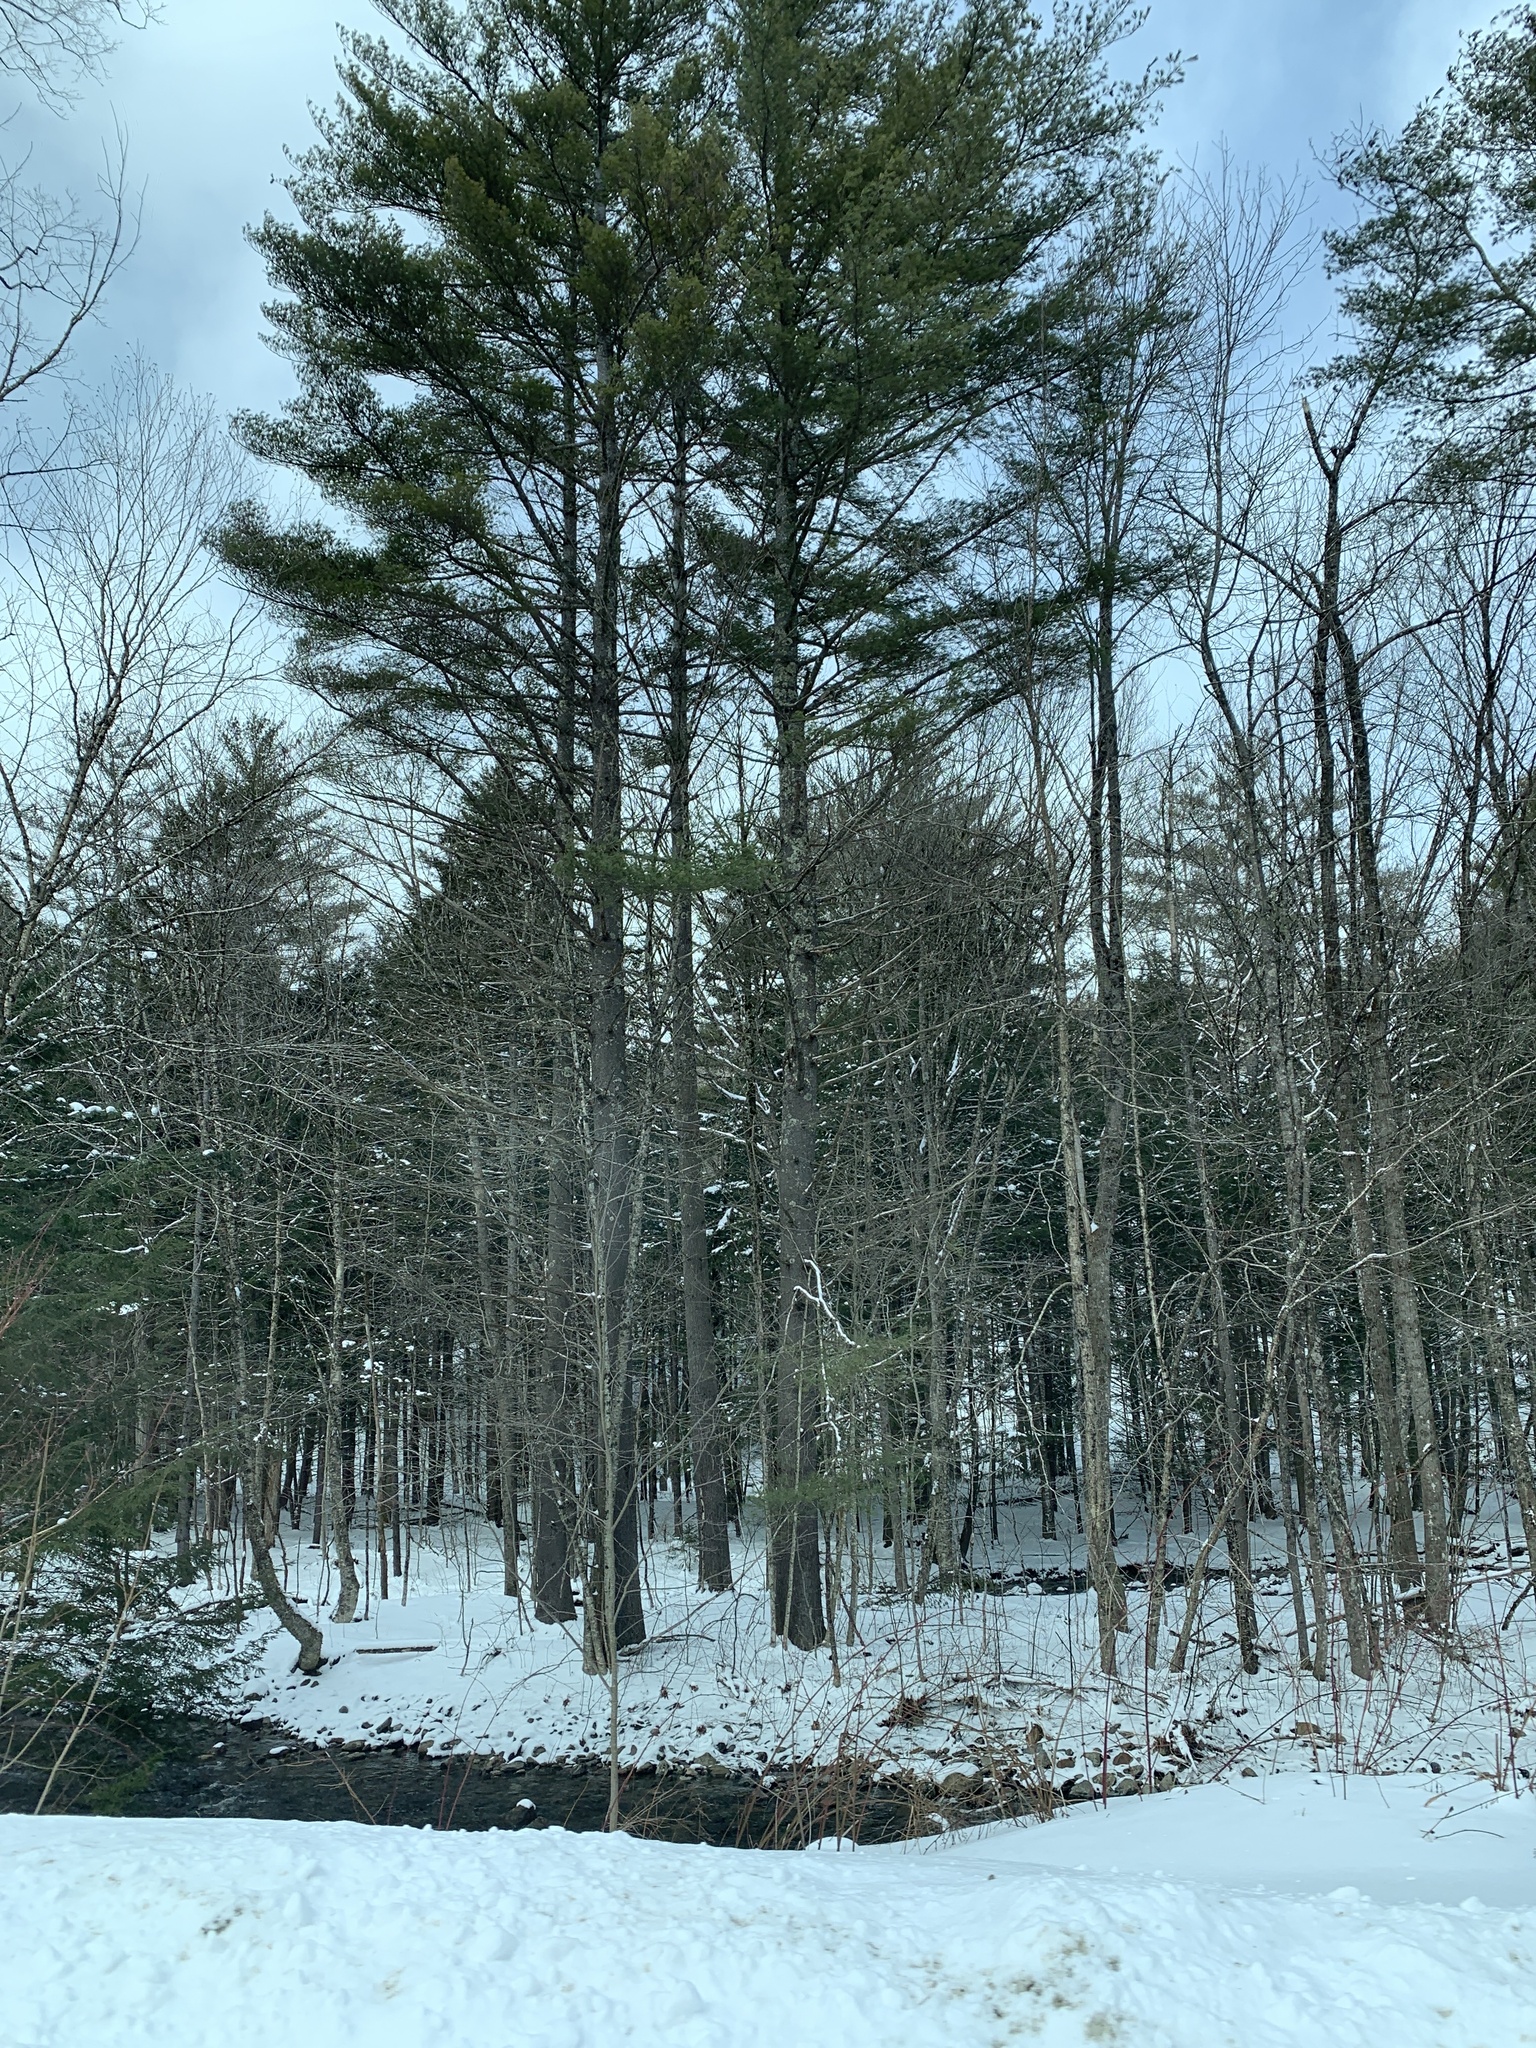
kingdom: Plantae
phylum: Tracheophyta
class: Pinopsida
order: Pinales
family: Pinaceae
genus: Pinus
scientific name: Pinus strobus
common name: Weymouth pine
